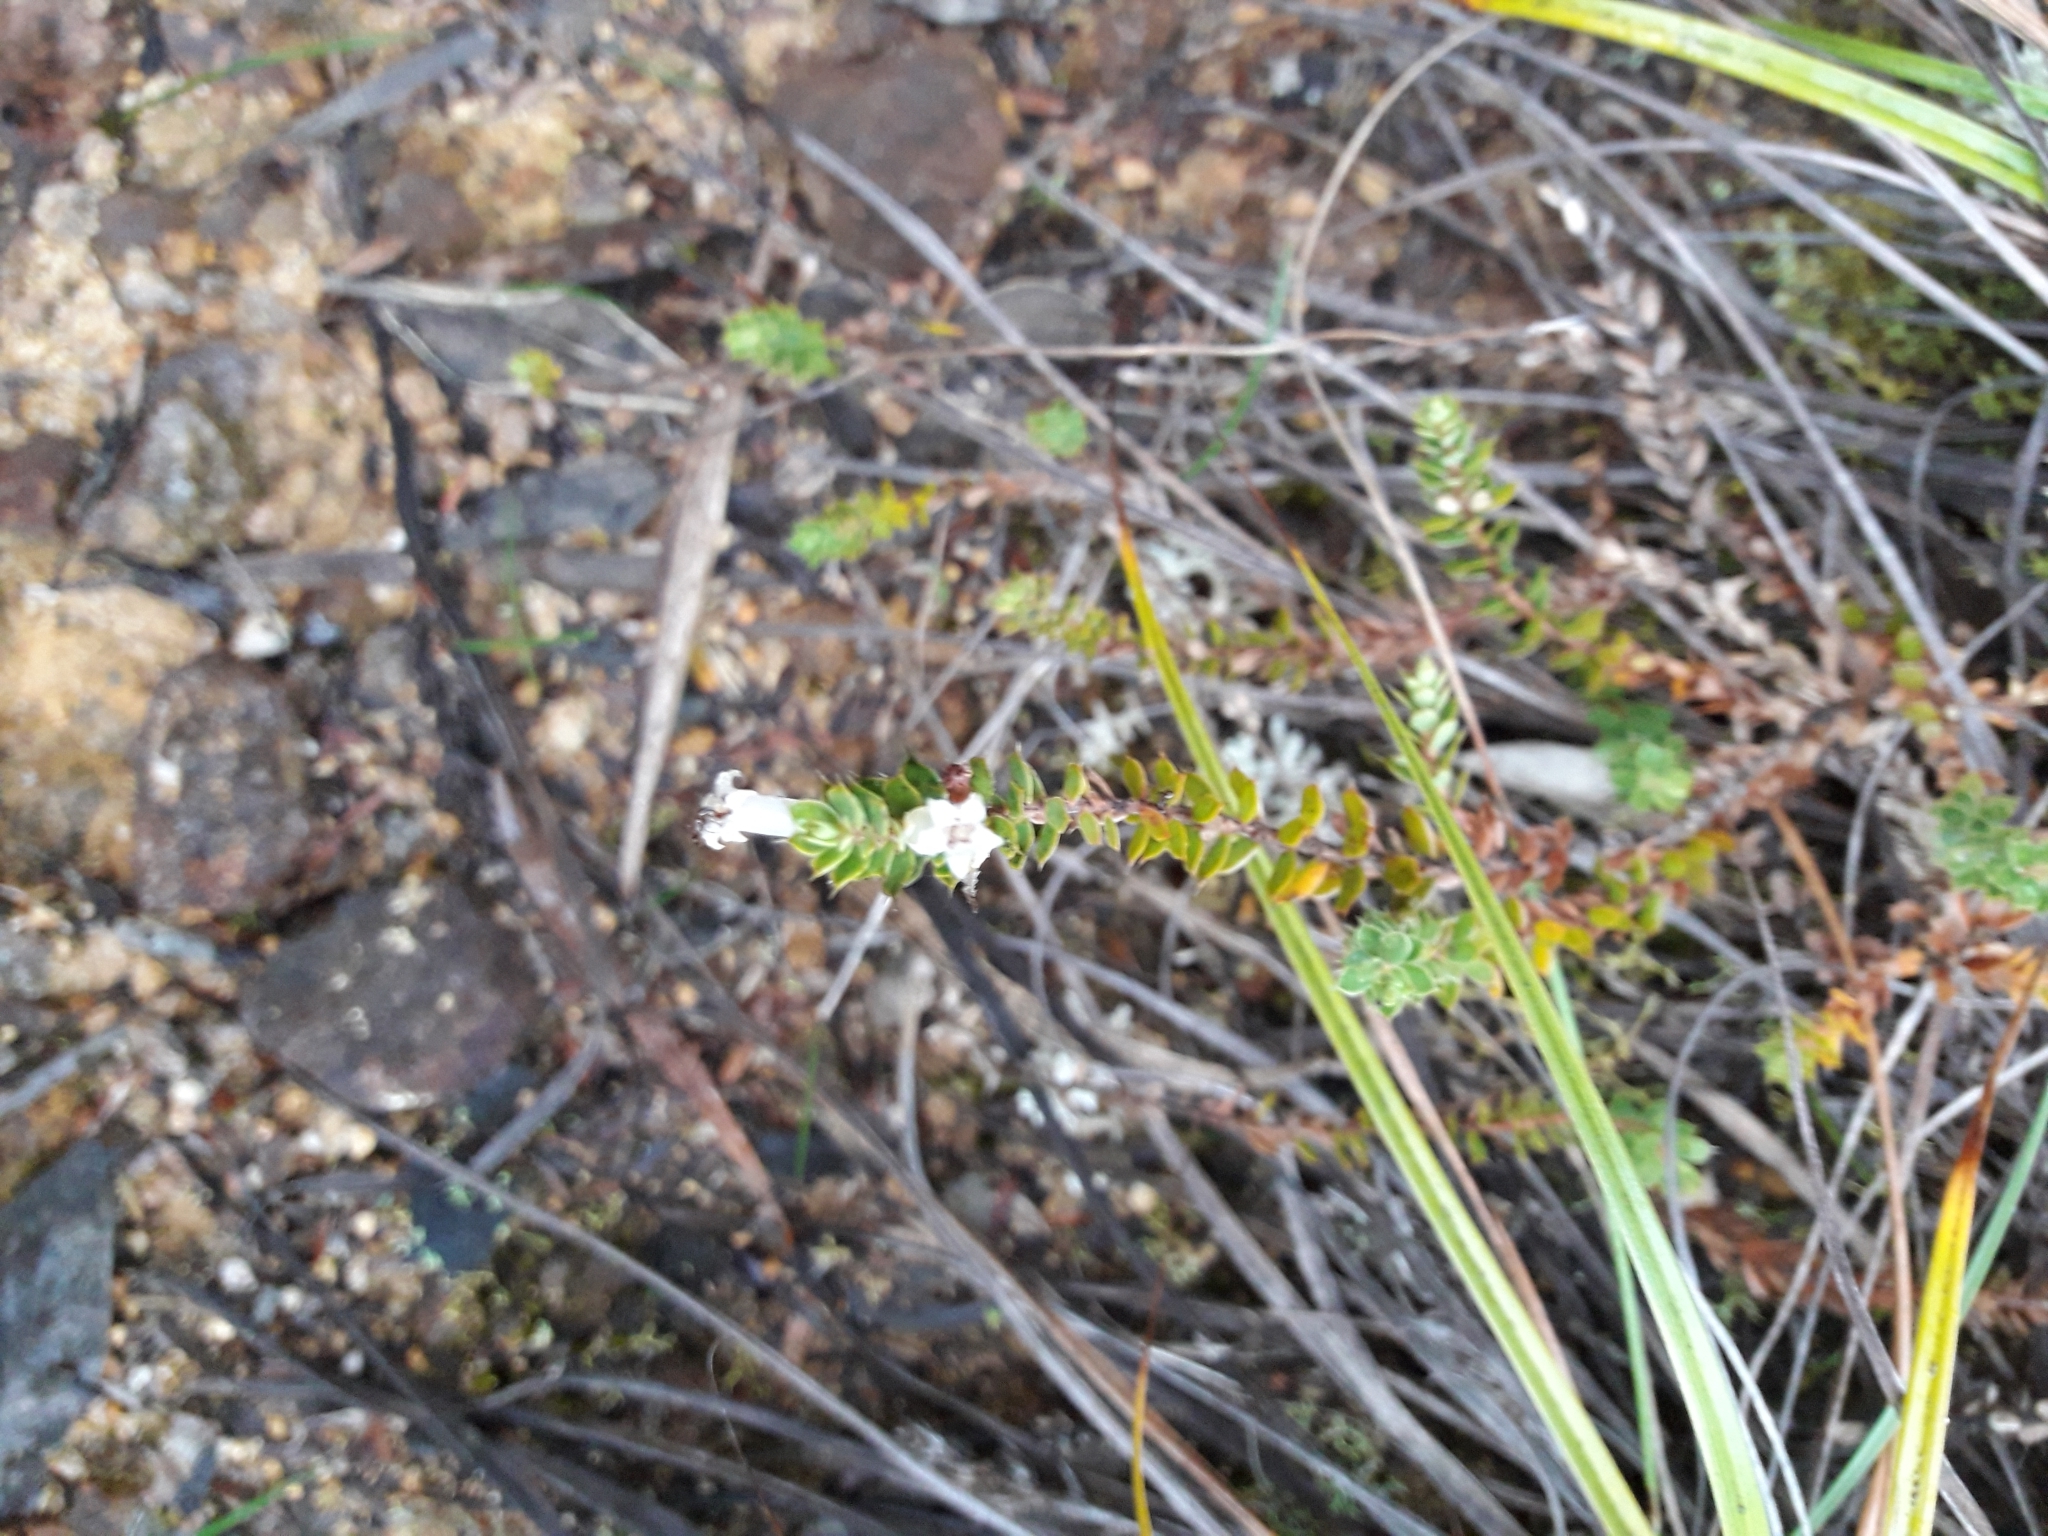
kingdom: Plantae
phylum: Tracheophyta
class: Magnoliopsida
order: Ericales
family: Ericaceae
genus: Styphelia
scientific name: Styphelia nesophila
